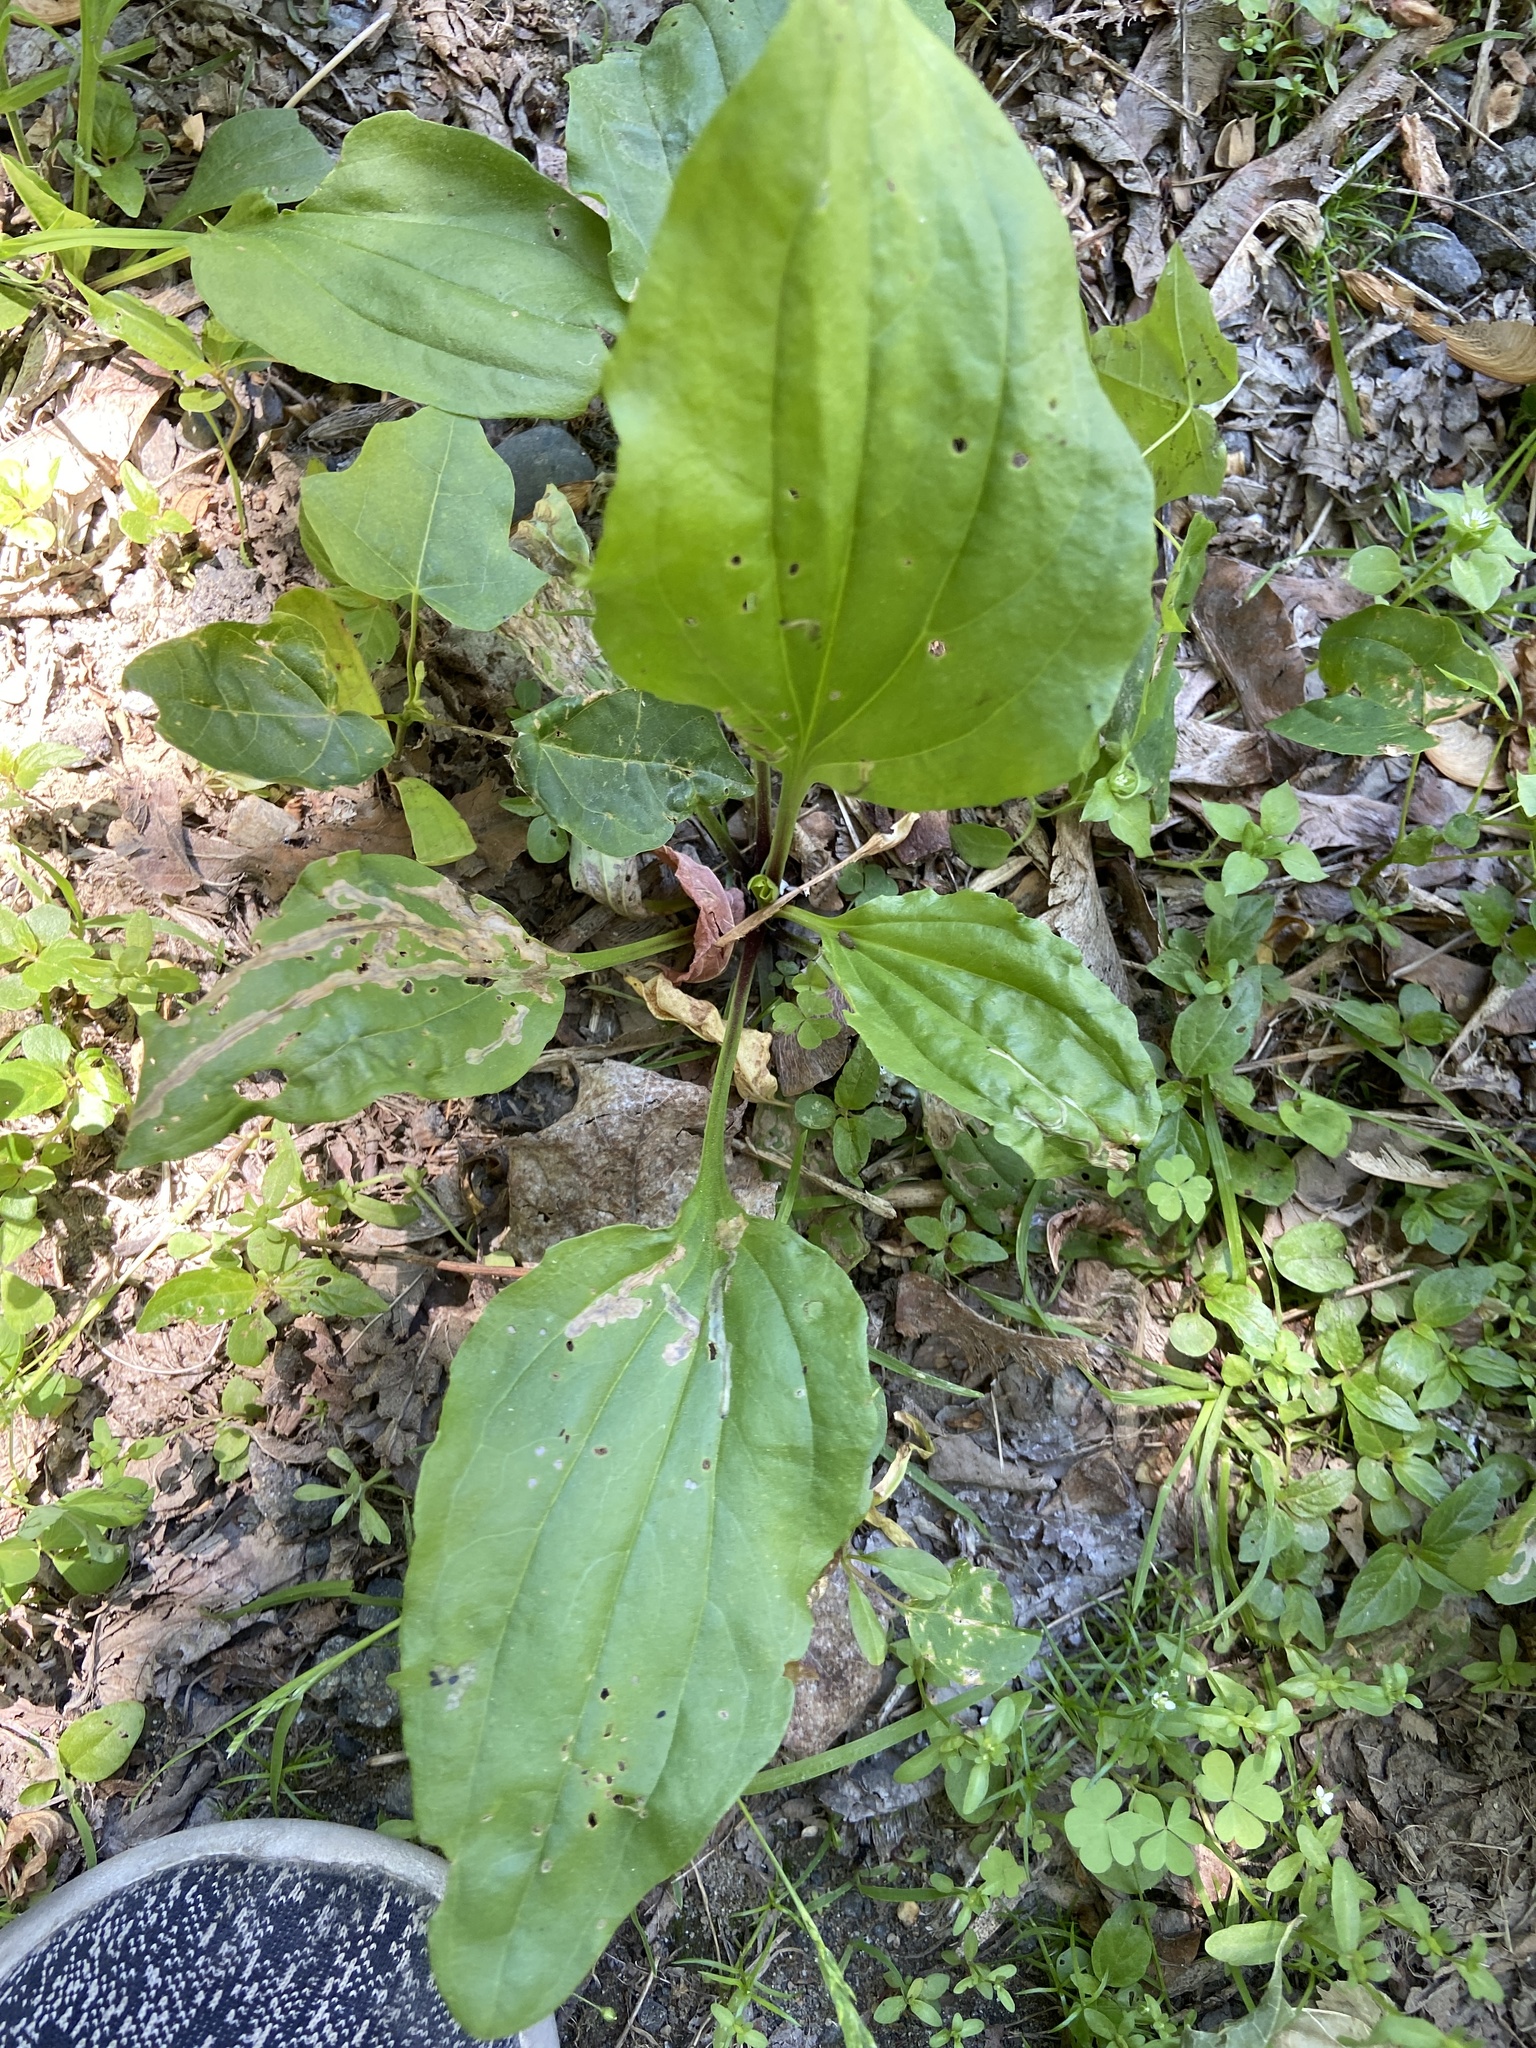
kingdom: Plantae
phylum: Tracheophyta
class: Magnoliopsida
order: Lamiales
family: Plantaginaceae
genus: Plantago
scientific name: Plantago rugelii
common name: American plantain
